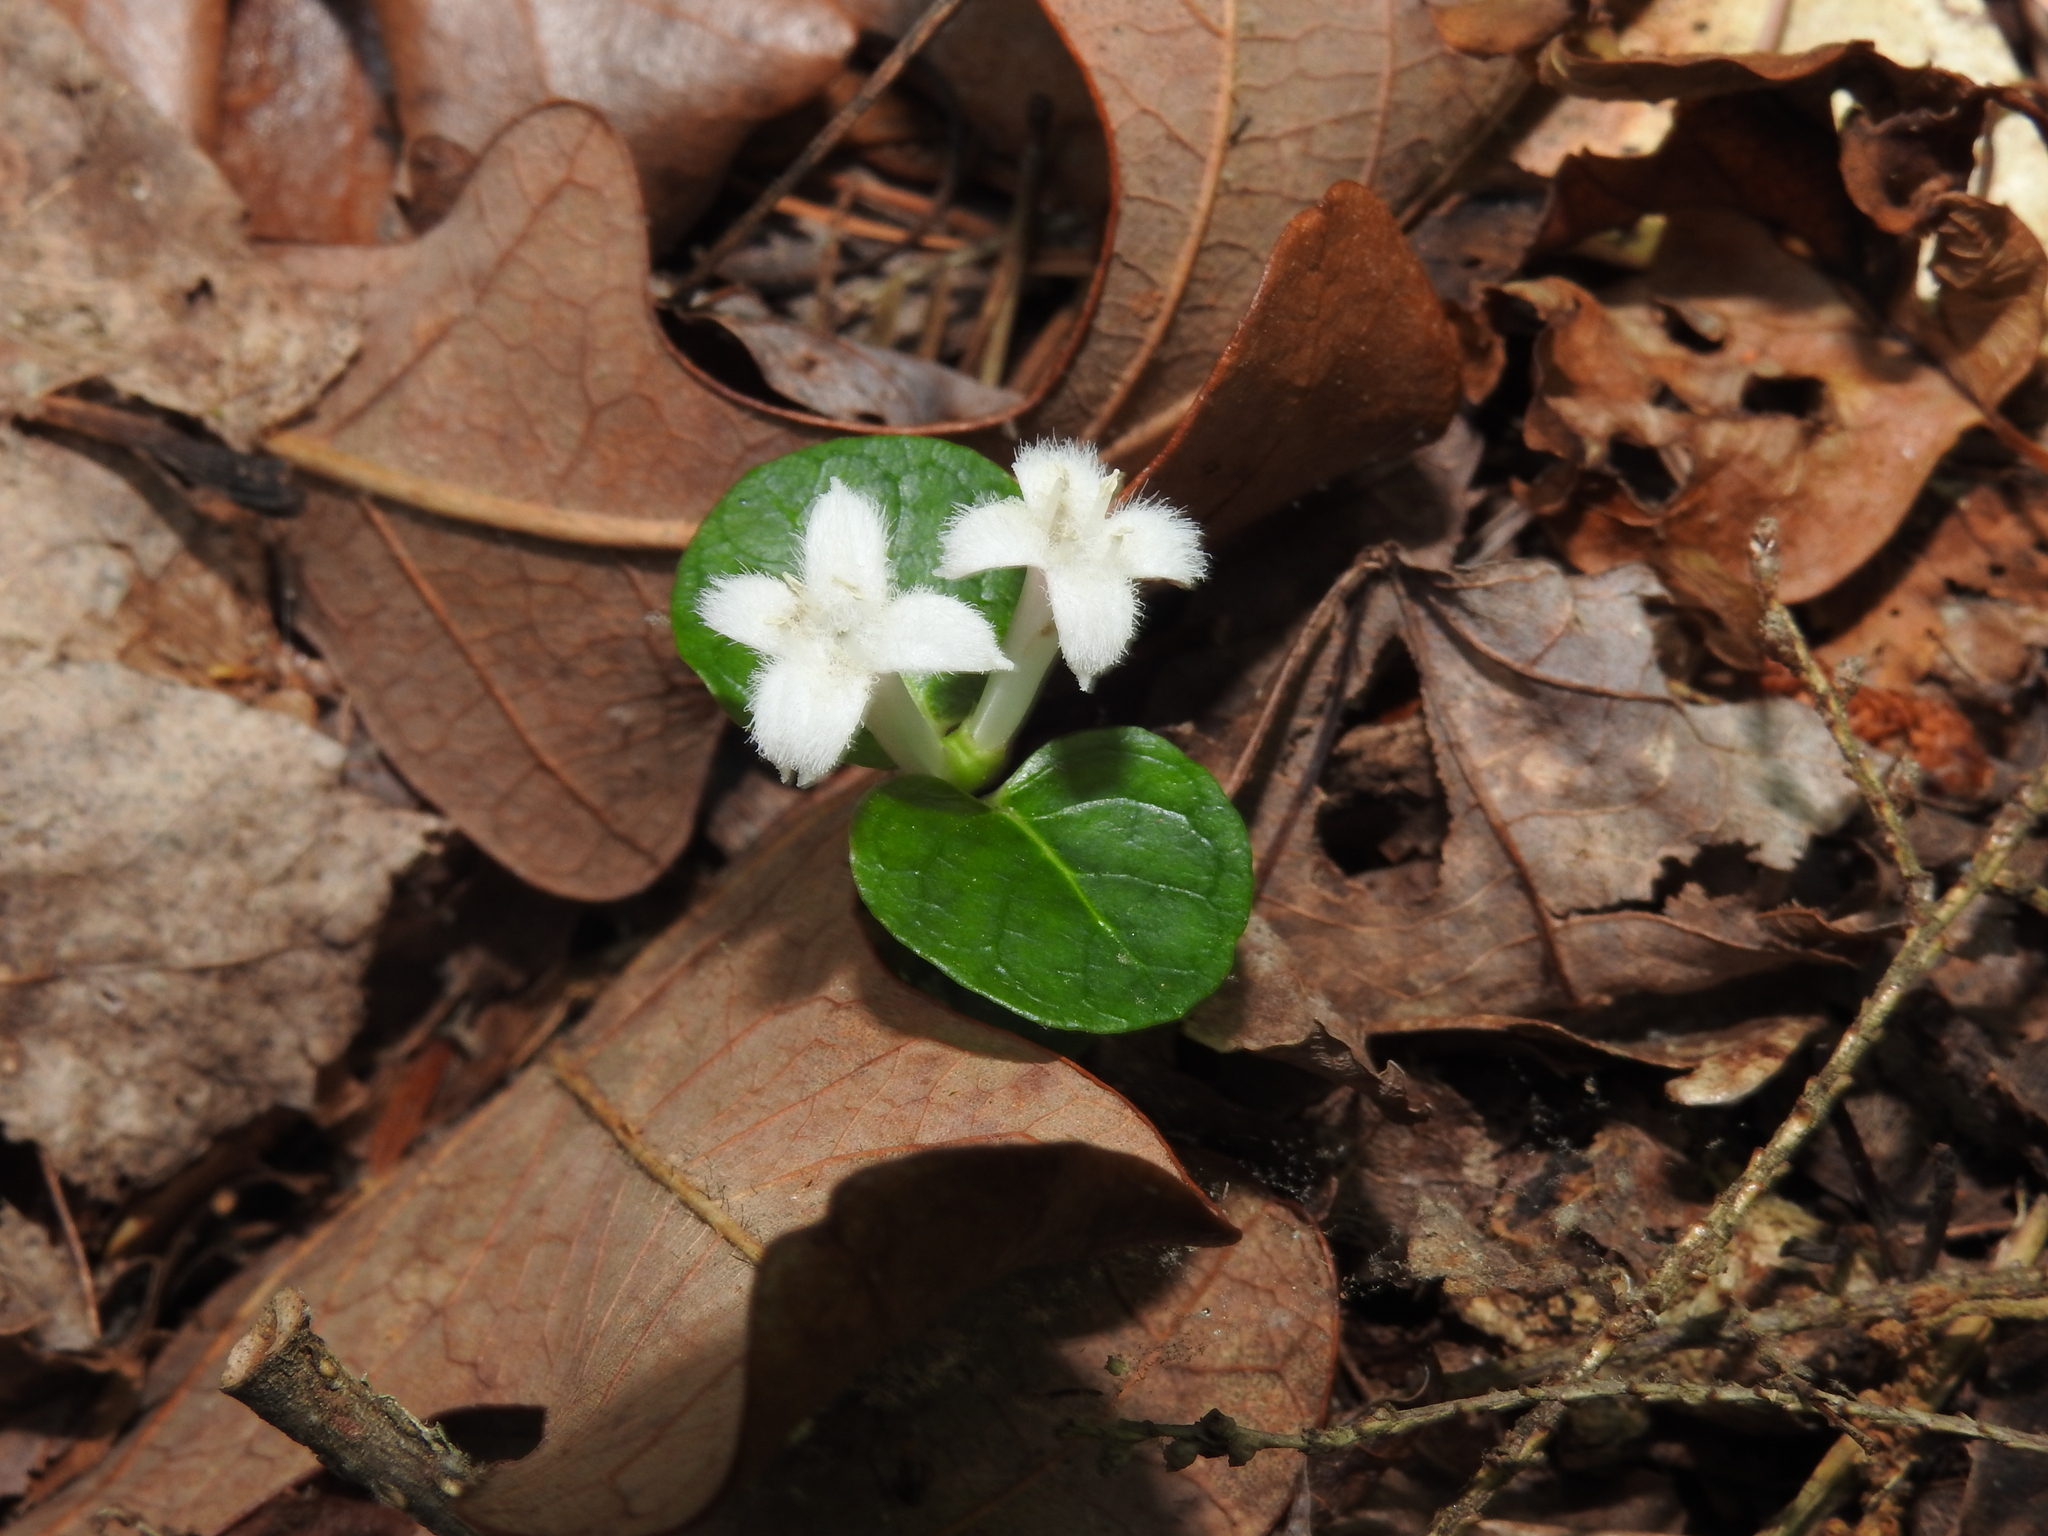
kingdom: Plantae
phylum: Tracheophyta
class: Magnoliopsida
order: Gentianales
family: Rubiaceae
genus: Mitchella
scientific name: Mitchella repens
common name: Partridge-berry
